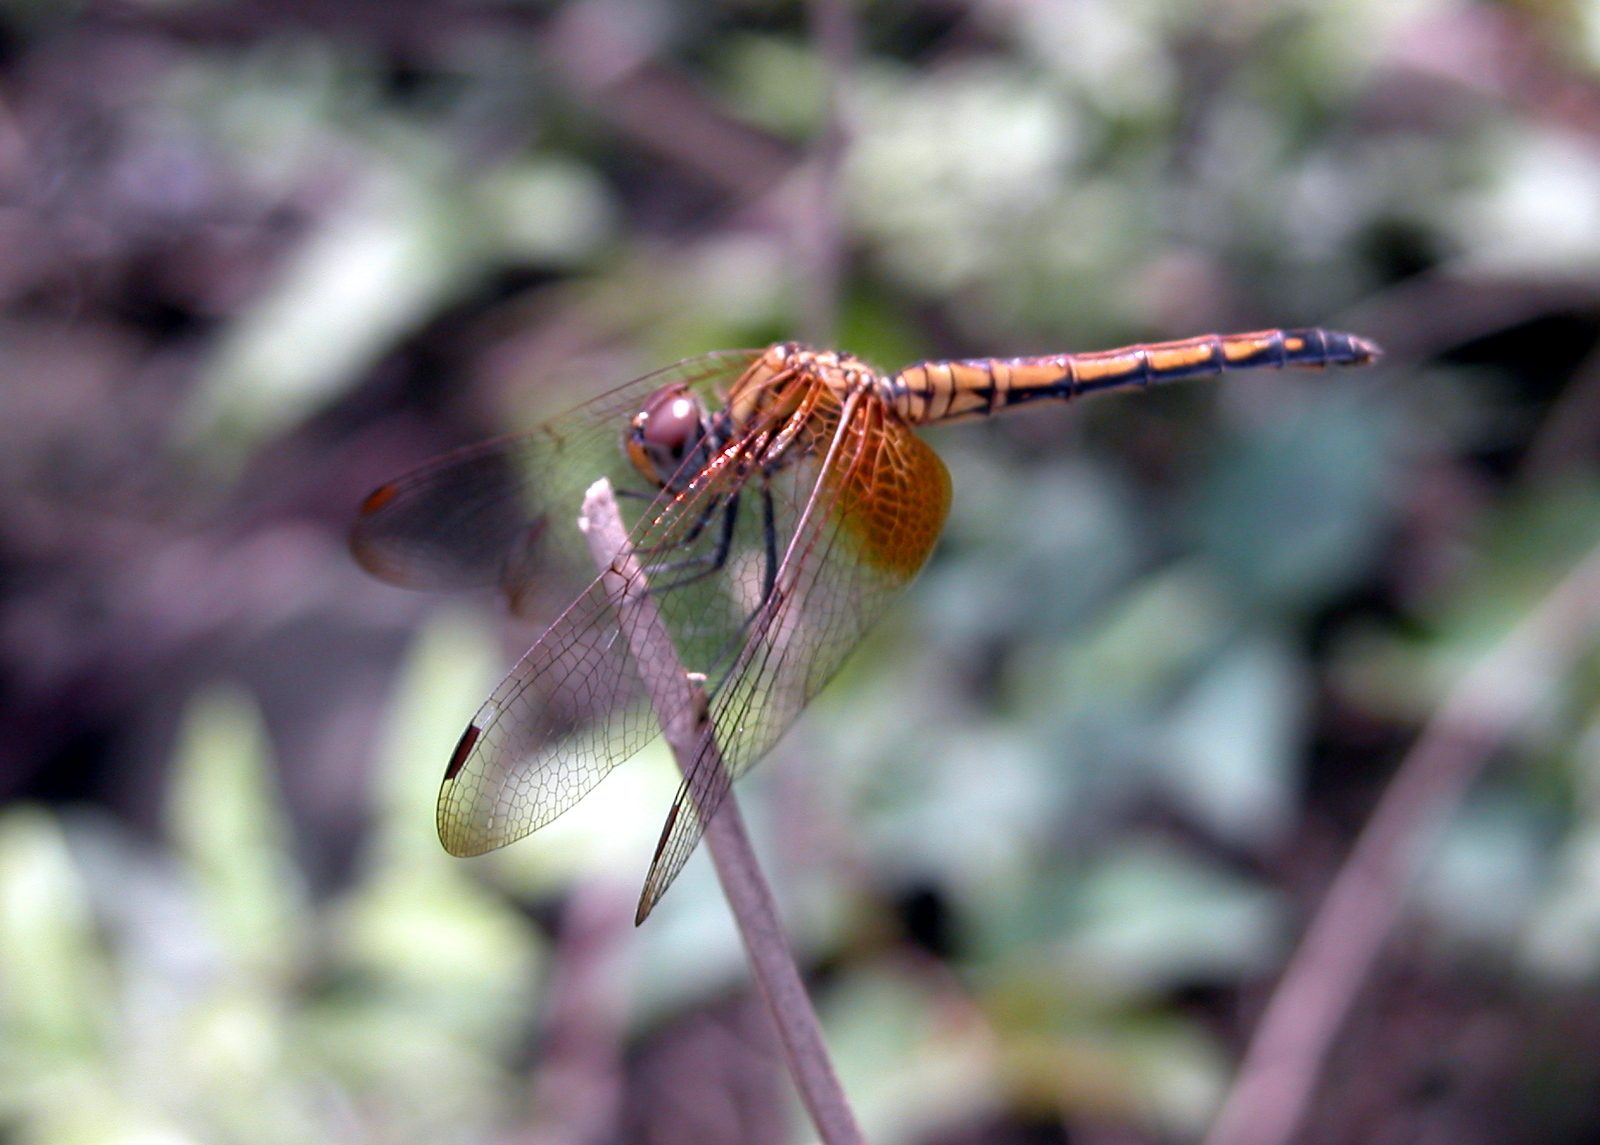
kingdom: Animalia
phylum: Arthropoda
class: Insecta
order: Odonata
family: Libellulidae
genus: Trithemis
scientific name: Trithemis aurora
